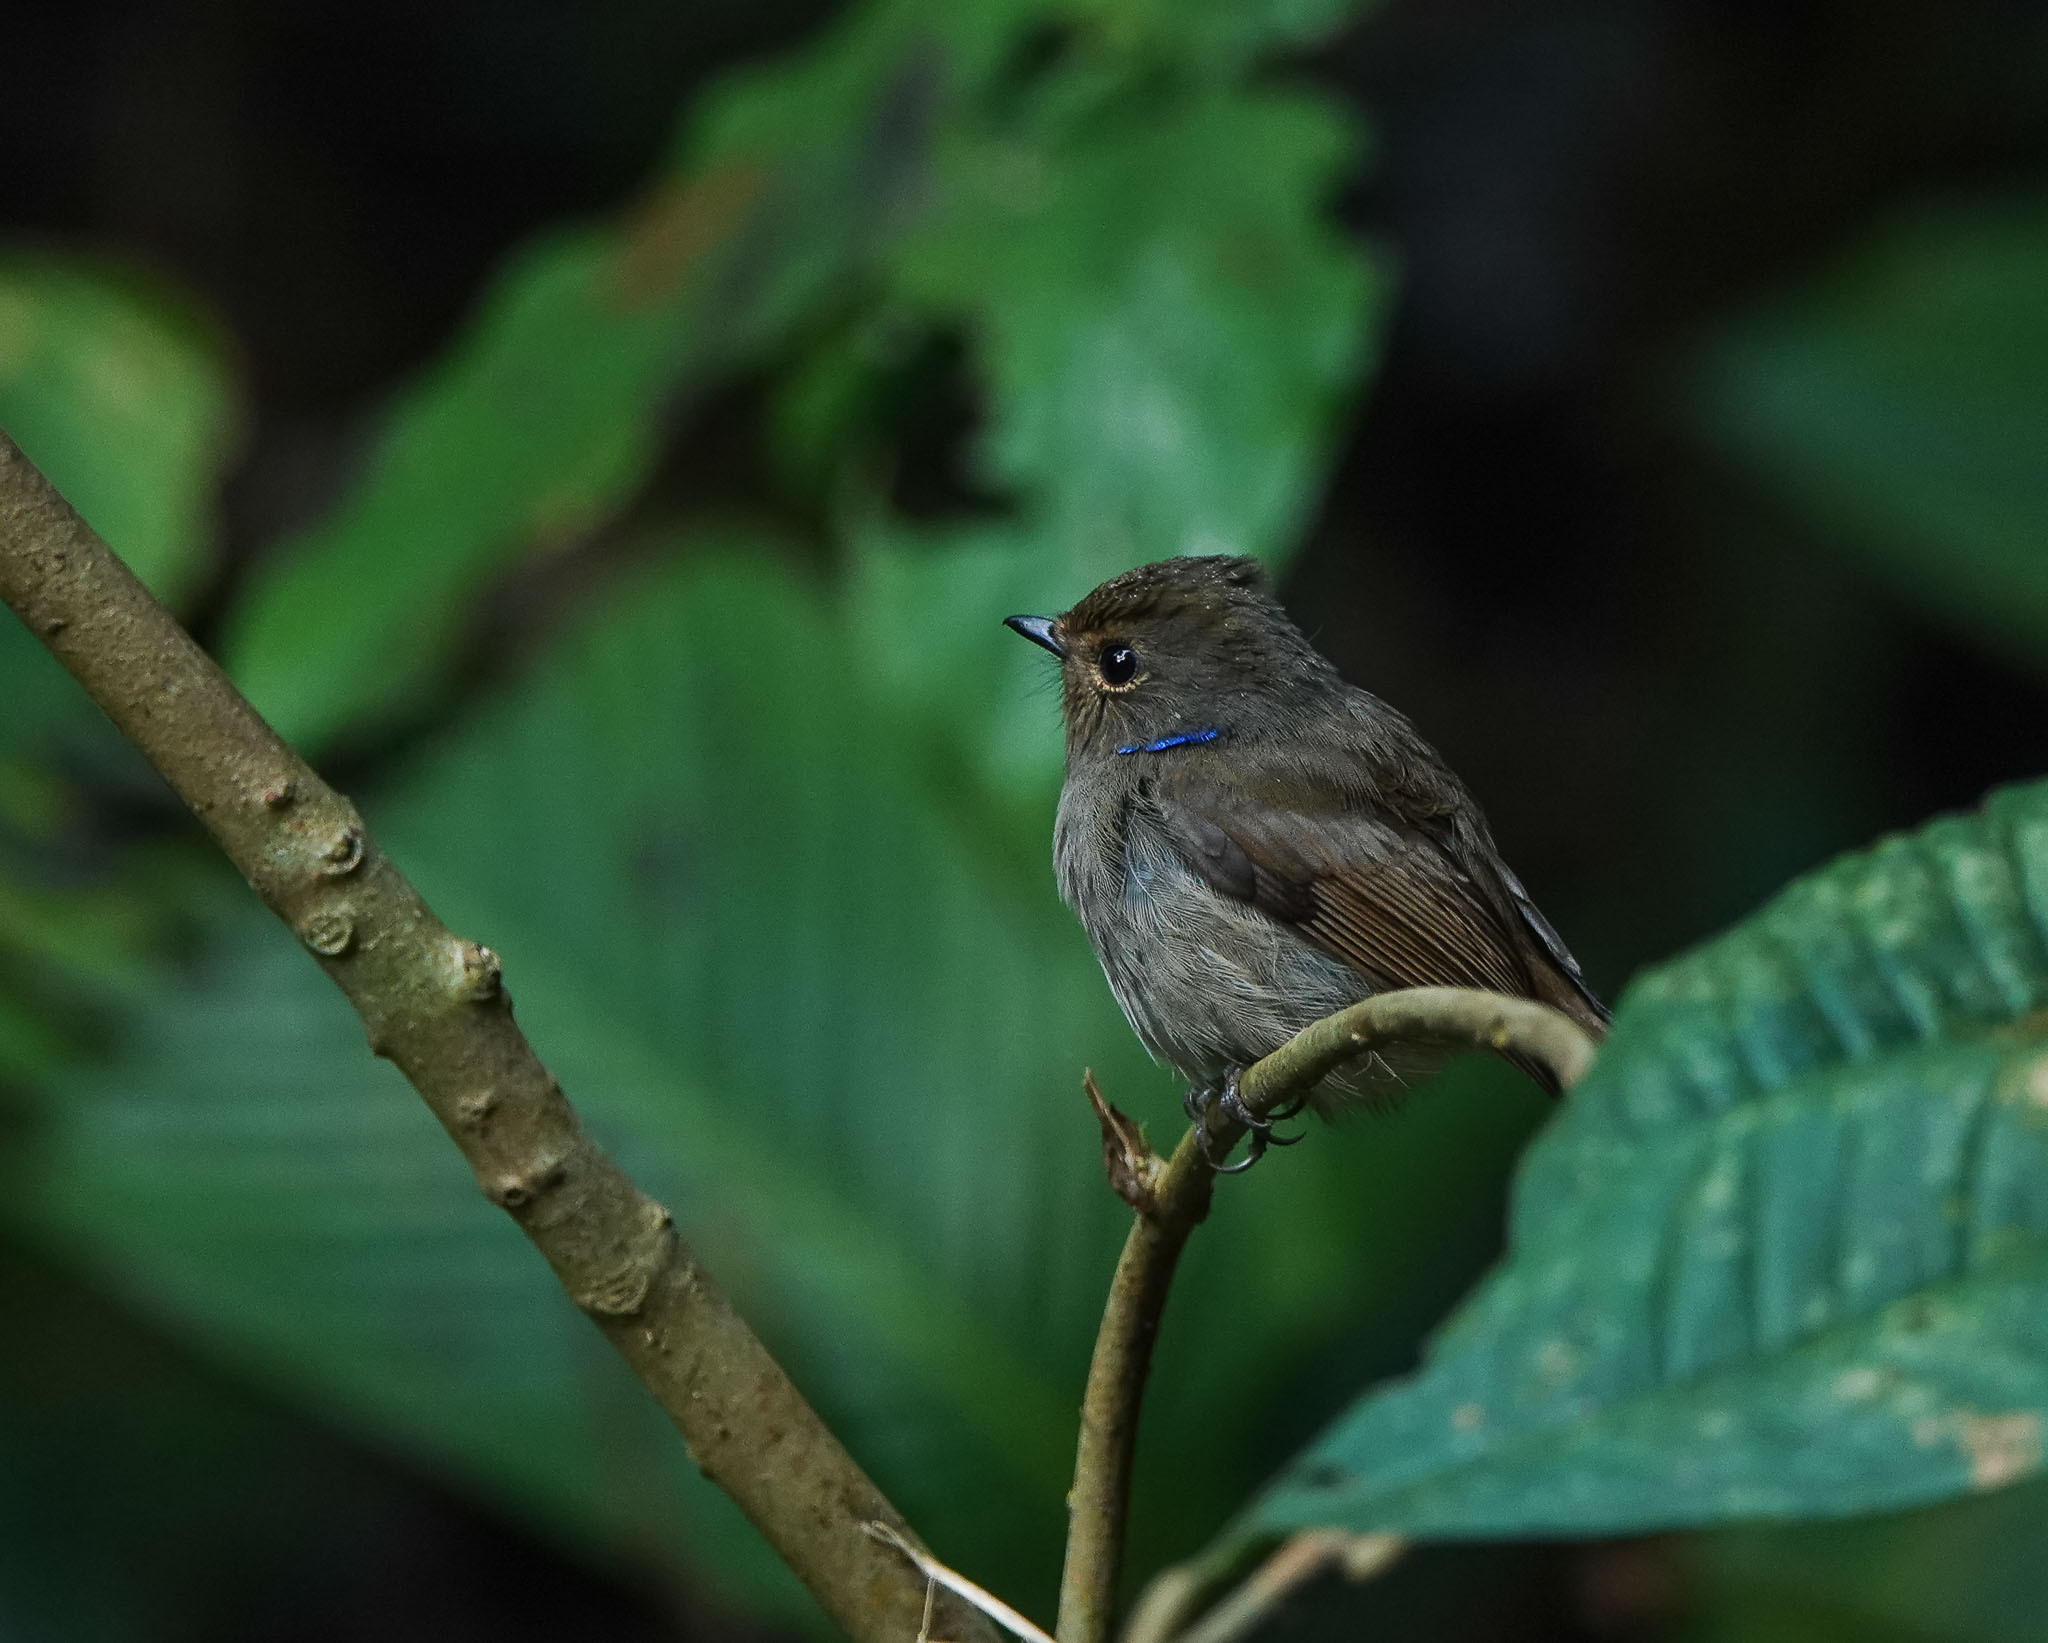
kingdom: Animalia
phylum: Chordata
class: Aves
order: Passeriformes
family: Muscicapidae
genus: Niltava
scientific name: Niltava macgrigoriae
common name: Small niltava
